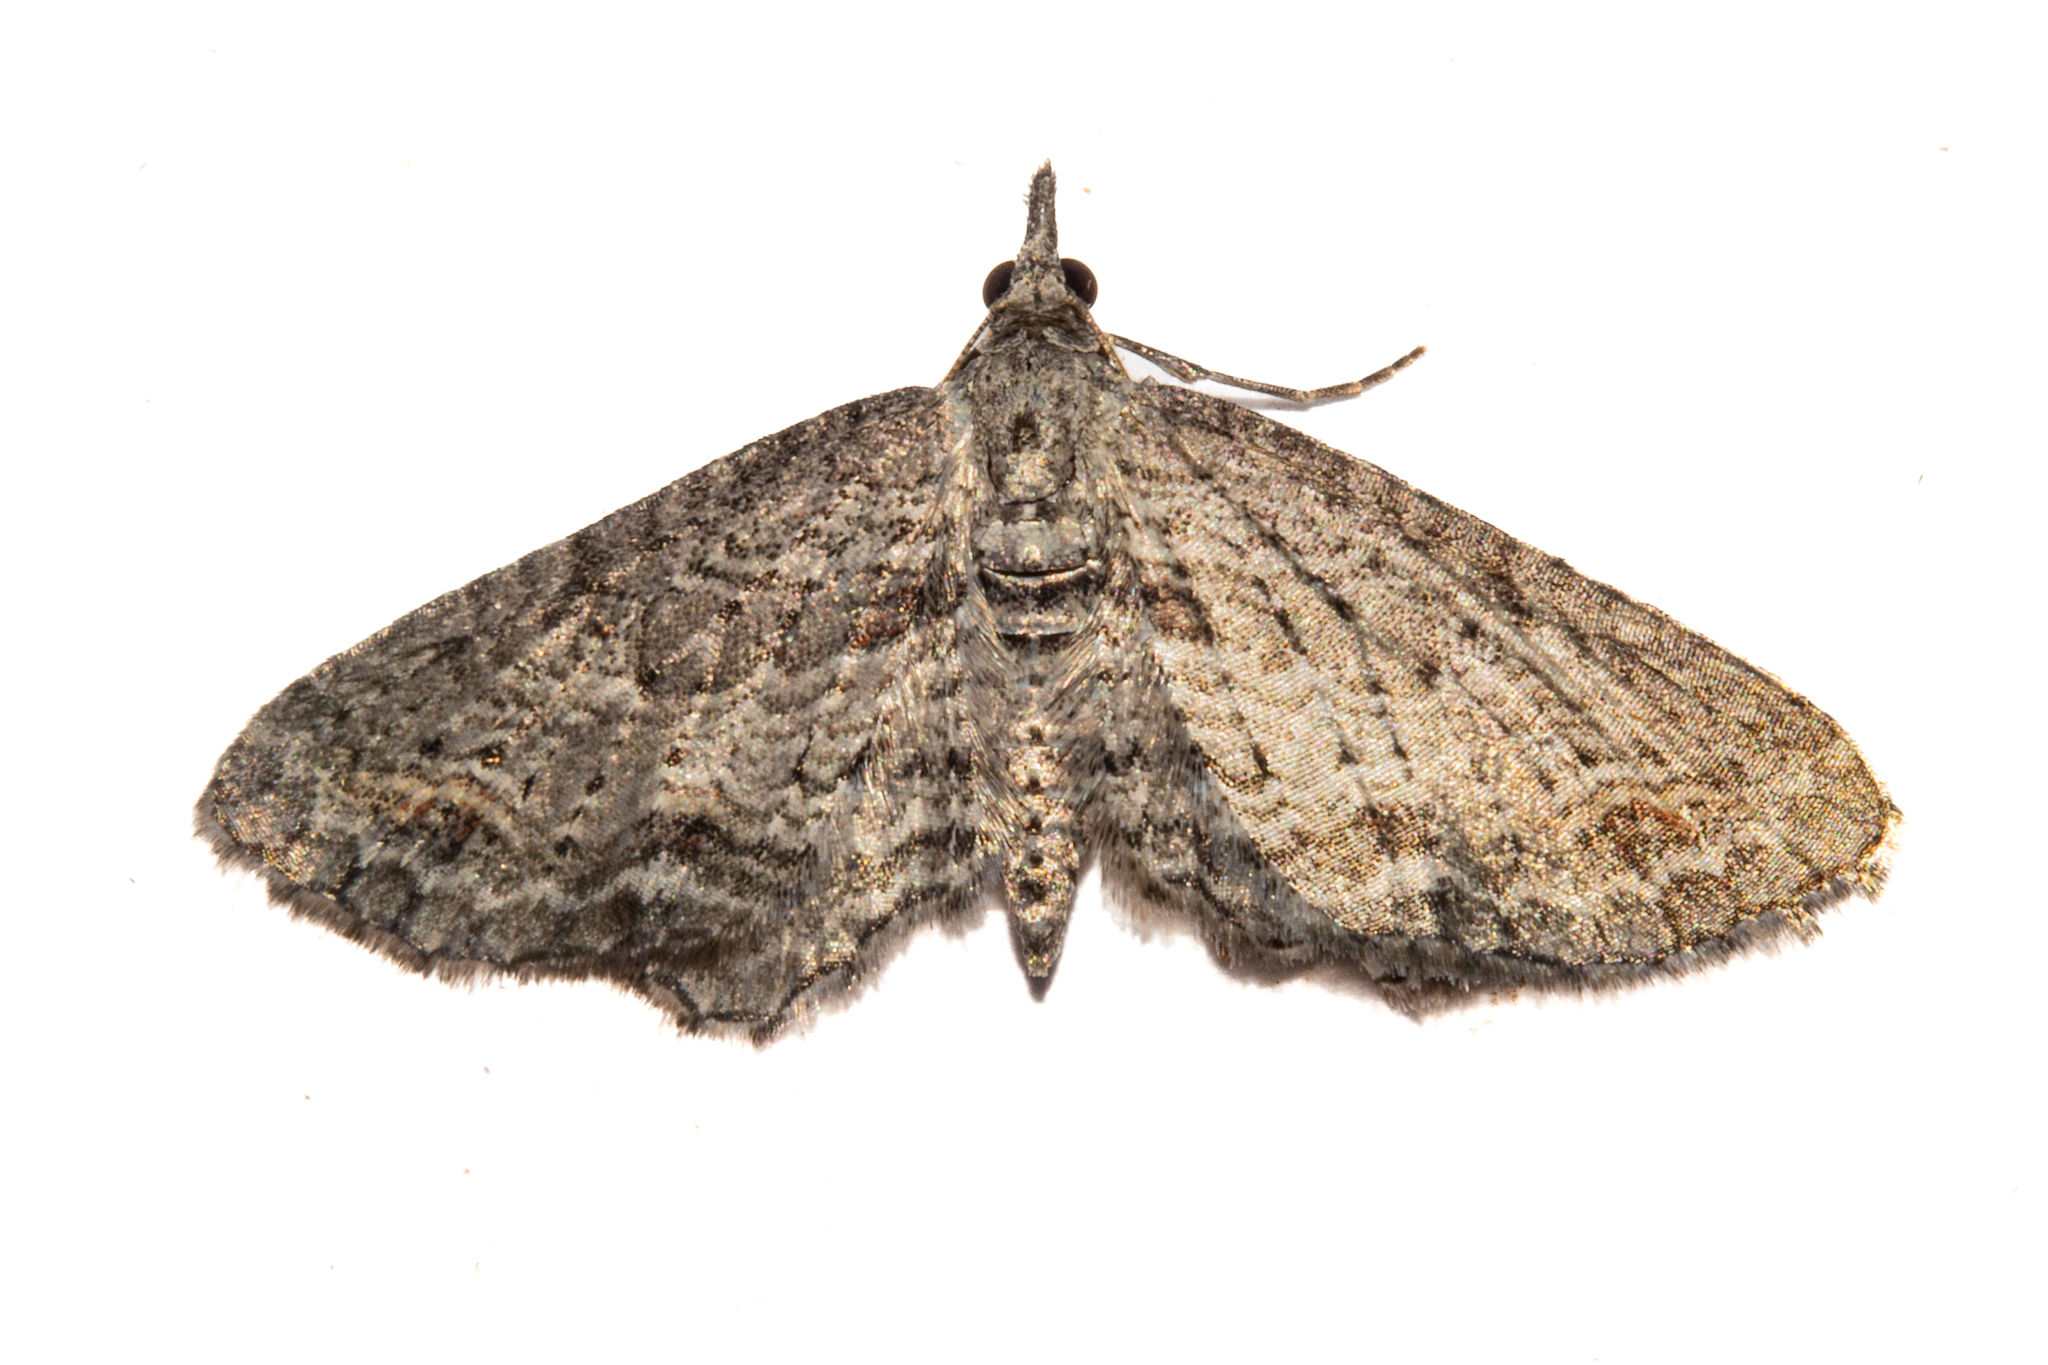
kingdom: Animalia
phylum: Arthropoda
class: Insecta
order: Lepidoptera
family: Geometridae
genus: Pasiphila
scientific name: Pasiphila humilis
